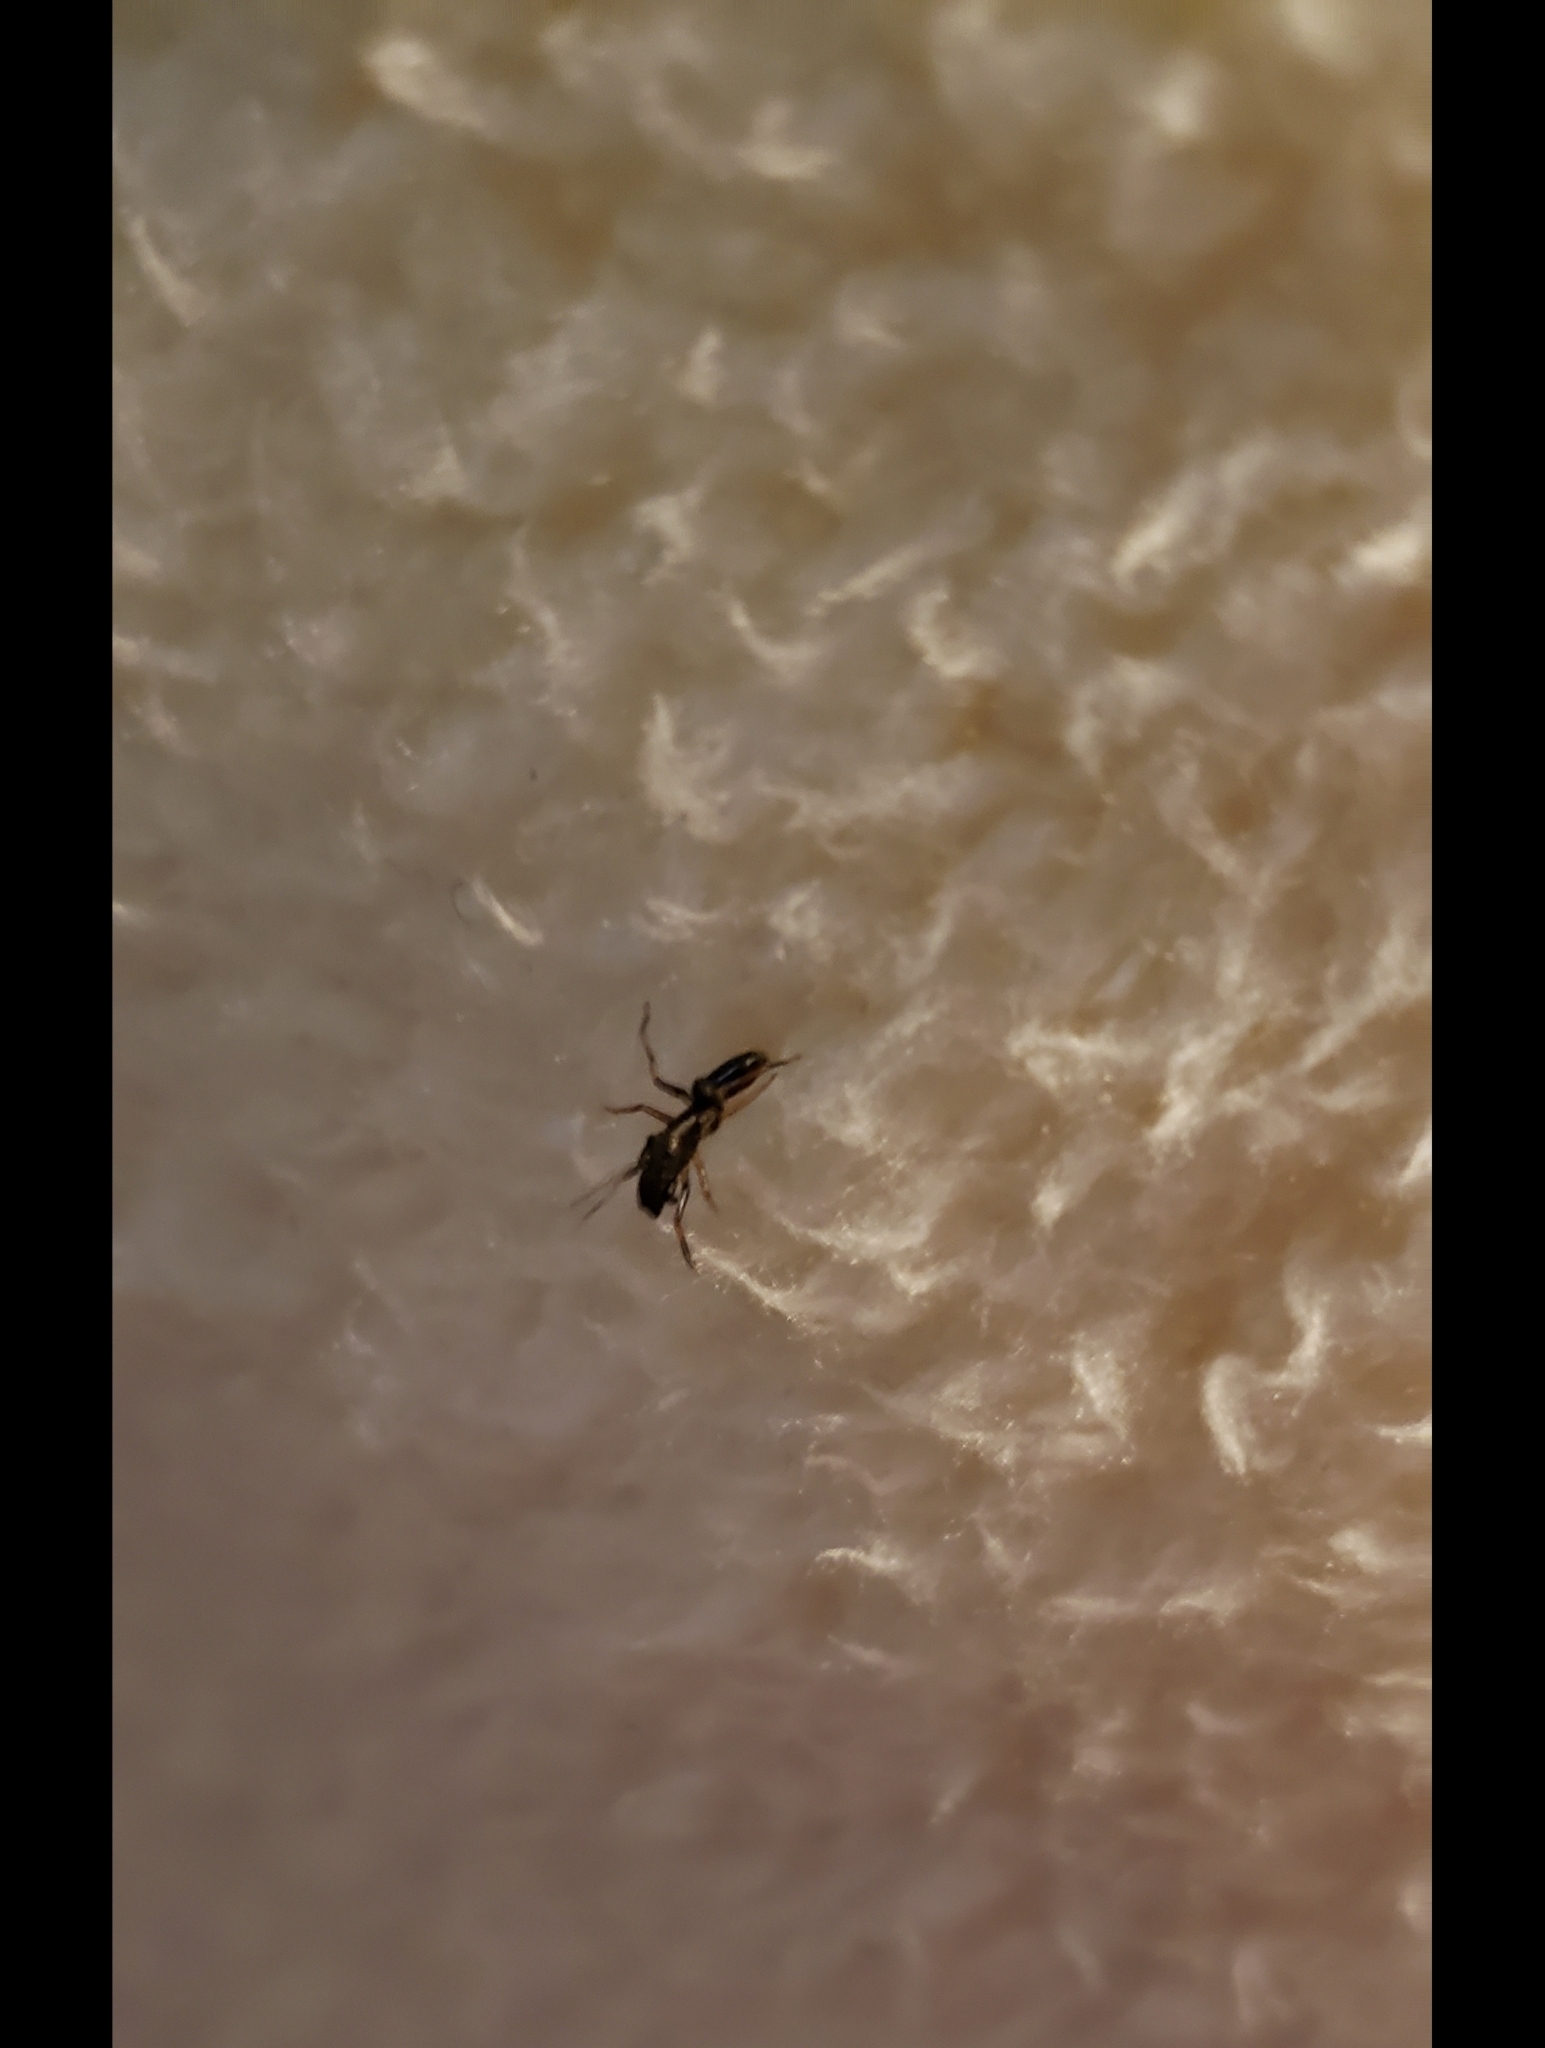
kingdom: Animalia
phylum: Arthropoda
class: Arachnida
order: Araneae
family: Salticidae
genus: Myrmarachne
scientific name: Myrmarachne formicaria
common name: Ant mimic jumping spider
